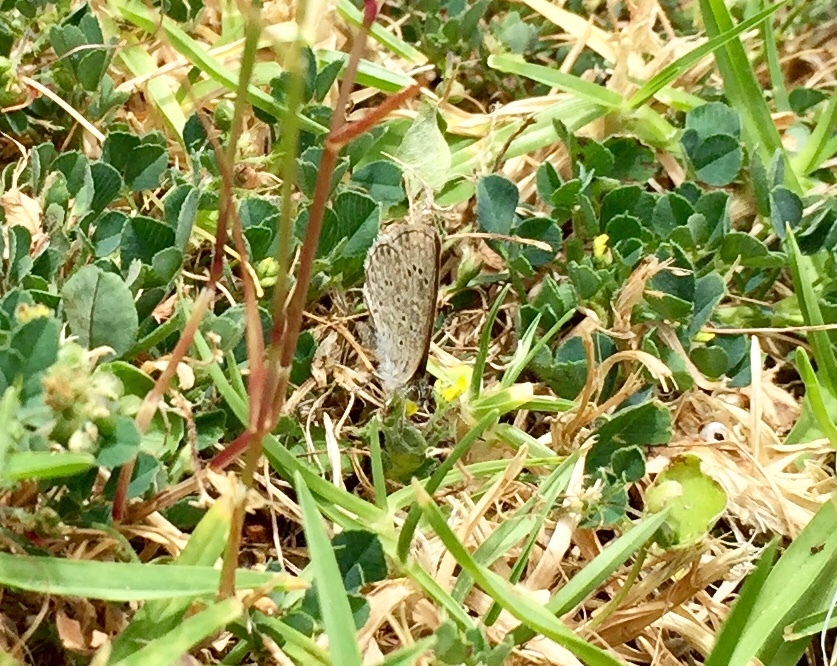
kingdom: Animalia
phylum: Arthropoda
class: Insecta
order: Lepidoptera
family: Lycaenidae
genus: Zizeeria
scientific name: Zizeeria knysna
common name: African grass blue
